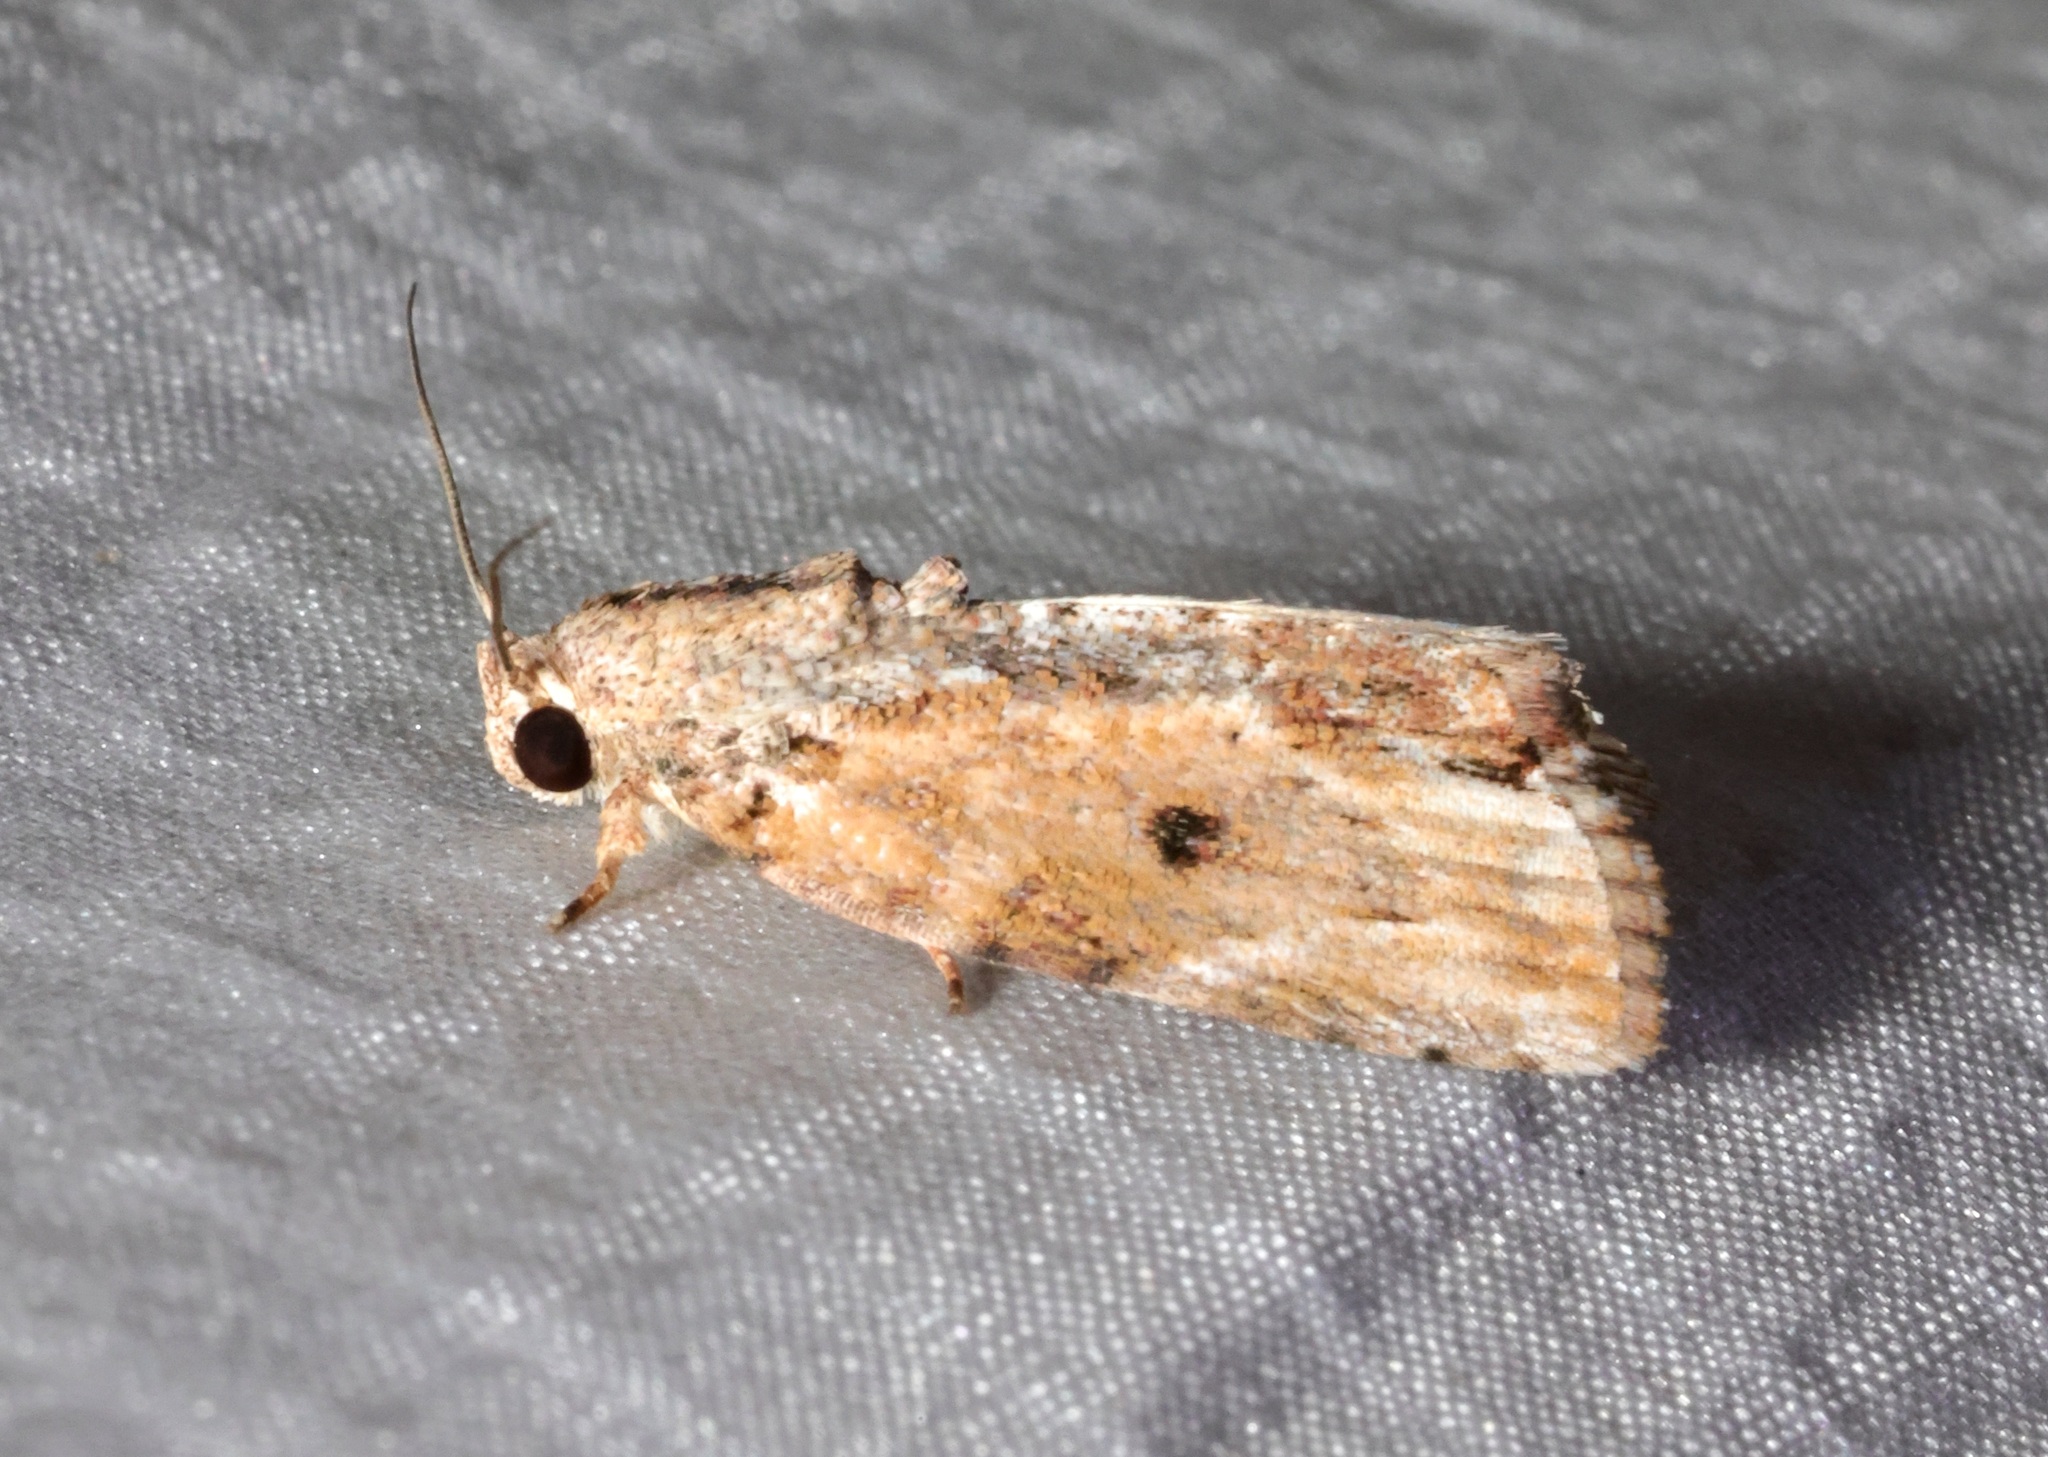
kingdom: Animalia
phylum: Arthropoda
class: Insecta
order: Lepidoptera
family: Nolidae
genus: Etanna
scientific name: Etanna breviuscula
